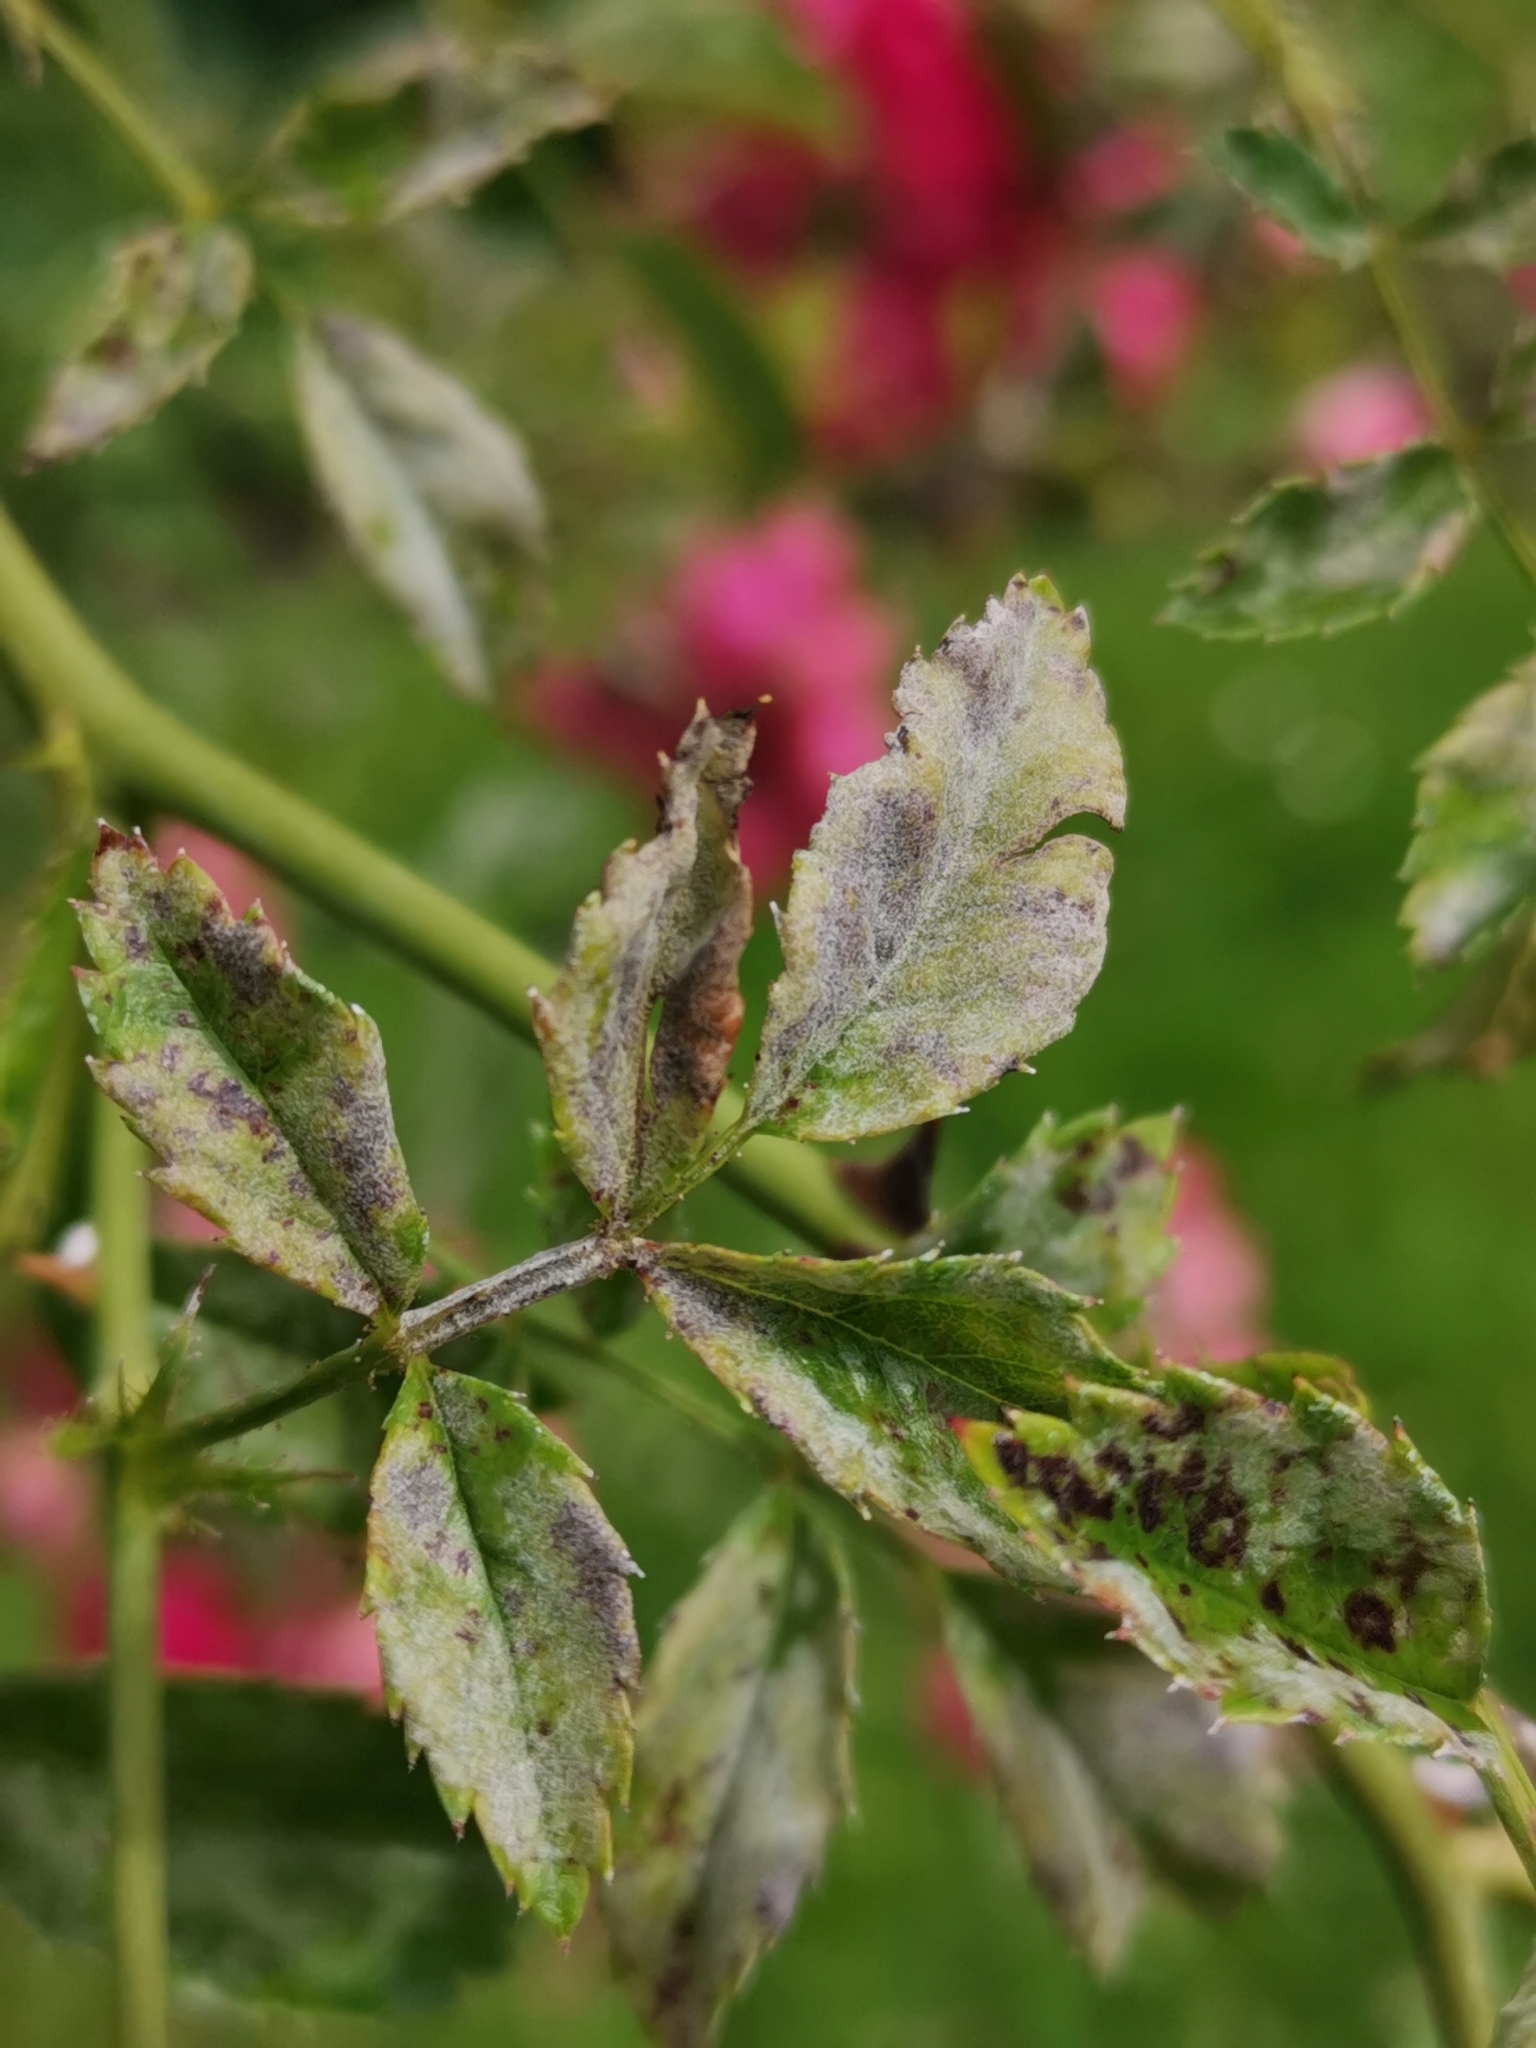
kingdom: Fungi
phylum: Ascomycota
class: Leotiomycetes
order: Helotiales
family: Erysiphaceae
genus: Podosphaera
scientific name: Podosphaera pannosa
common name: Rose mildew
